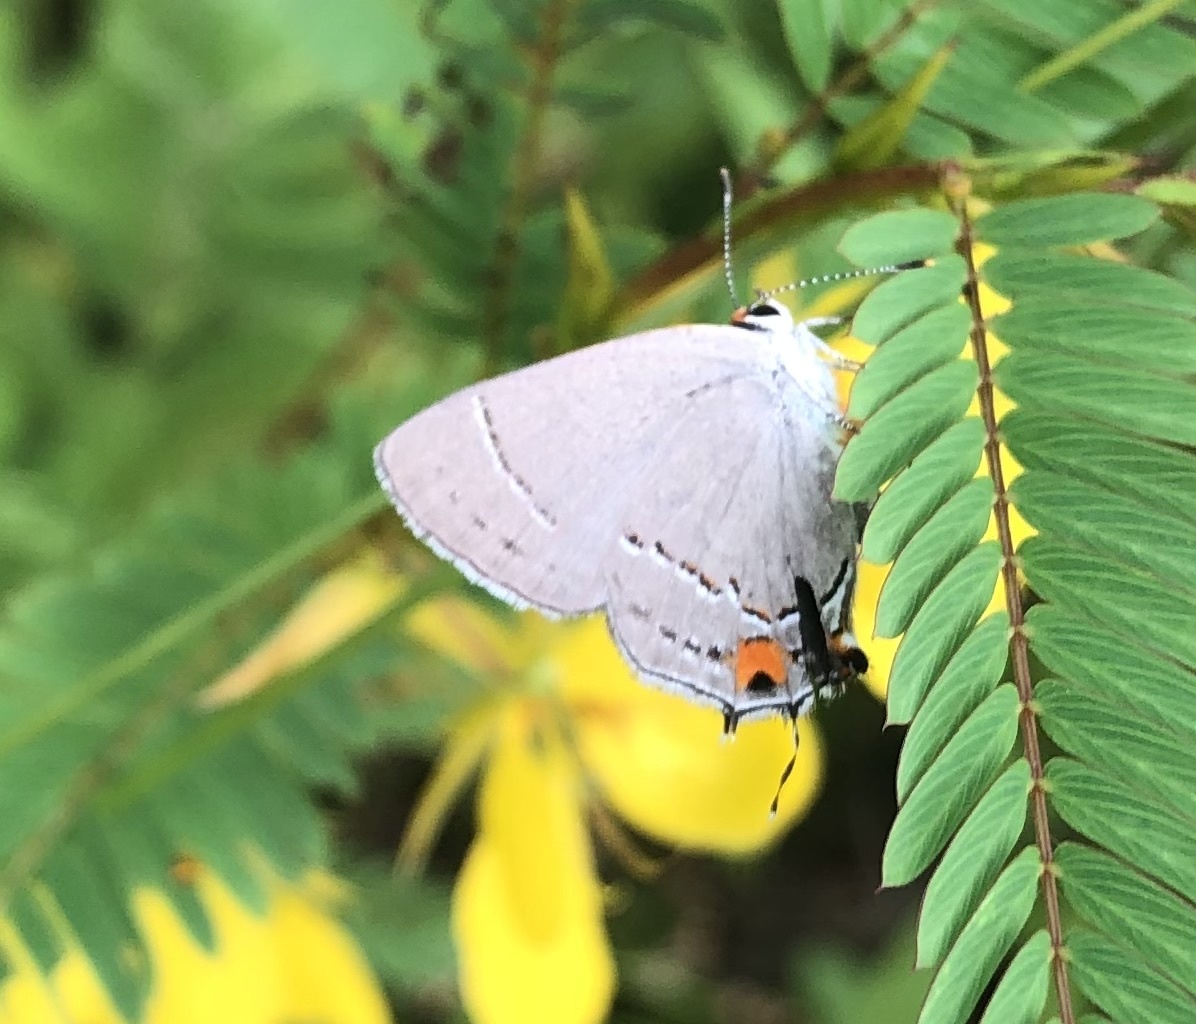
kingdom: Animalia
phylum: Arthropoda
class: Insecta
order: Lepidoptera
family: Lycaenidae
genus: Strymon
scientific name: Strymon melinus
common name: Gray hairstreak
